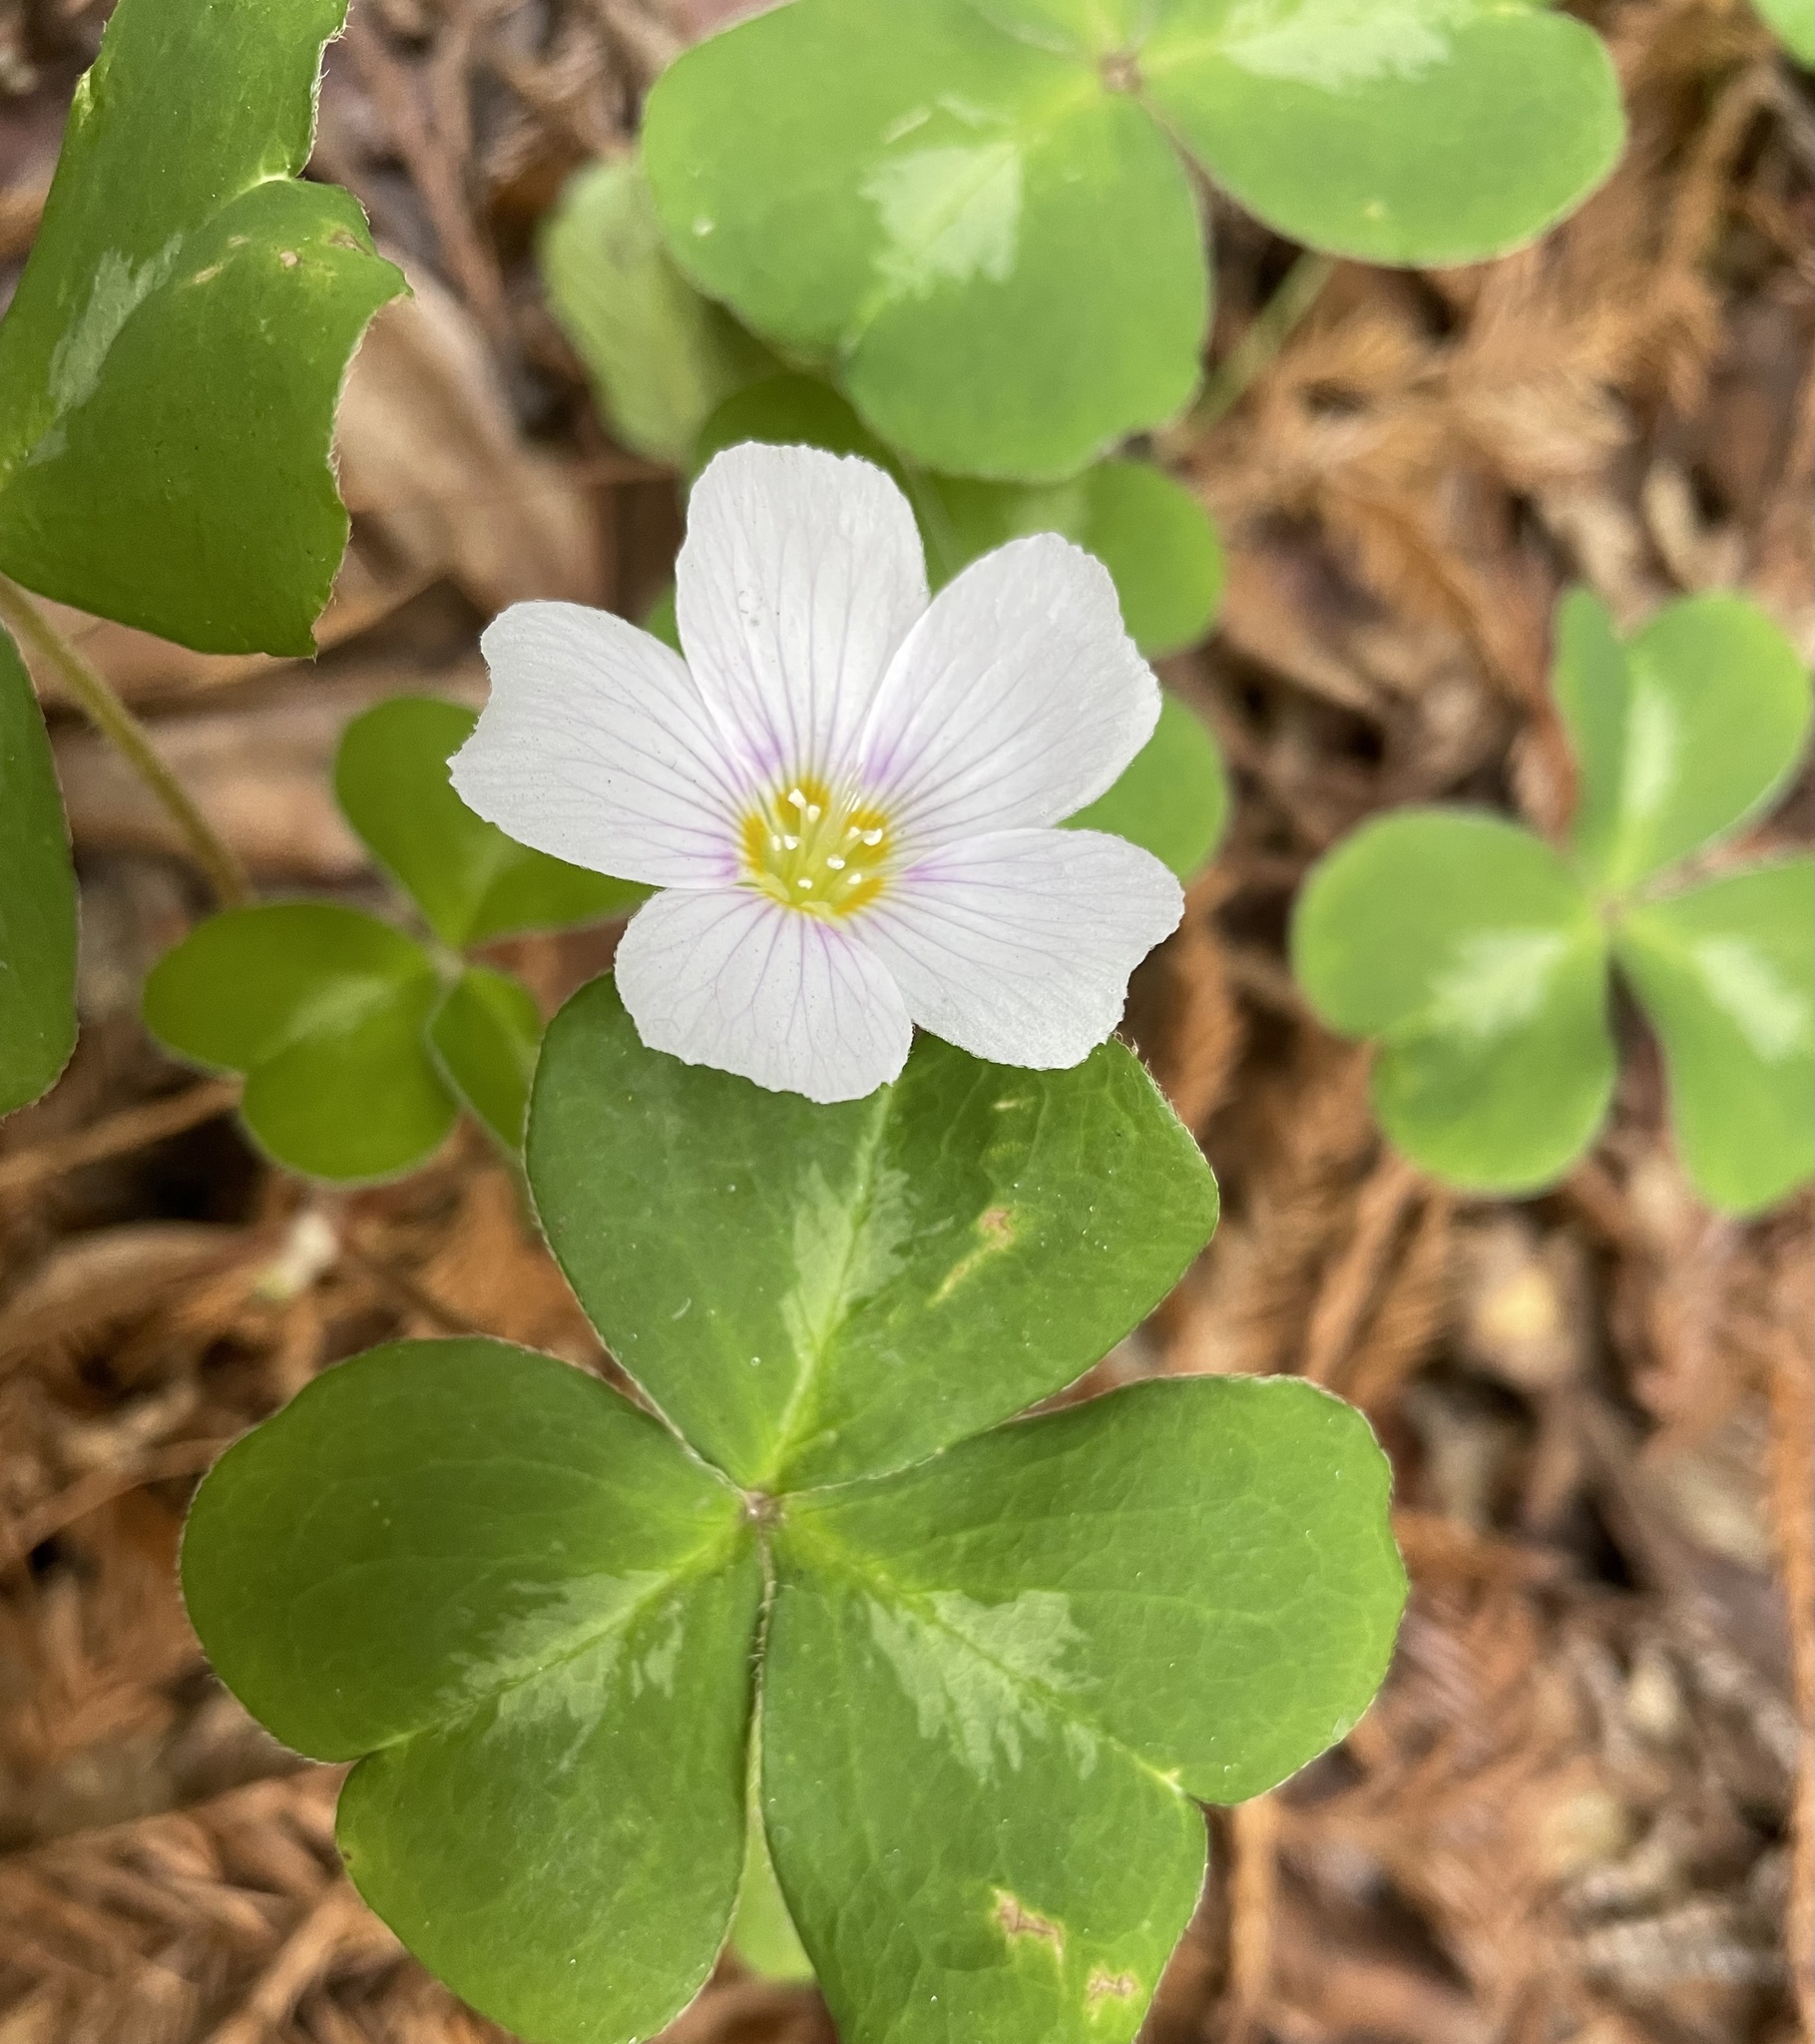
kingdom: Plantae
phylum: Tracheophyta
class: Magnoliopsida
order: Oxalidales
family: Oxalidaceae
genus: Oxalis
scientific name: Oxalis oregana
